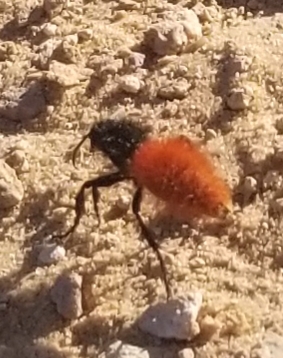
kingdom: Animalia
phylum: Arthropoda
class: Insecta
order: Hymenoptera
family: Mutillidae
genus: Dasymutilla
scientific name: Dasymutilla magnifica
